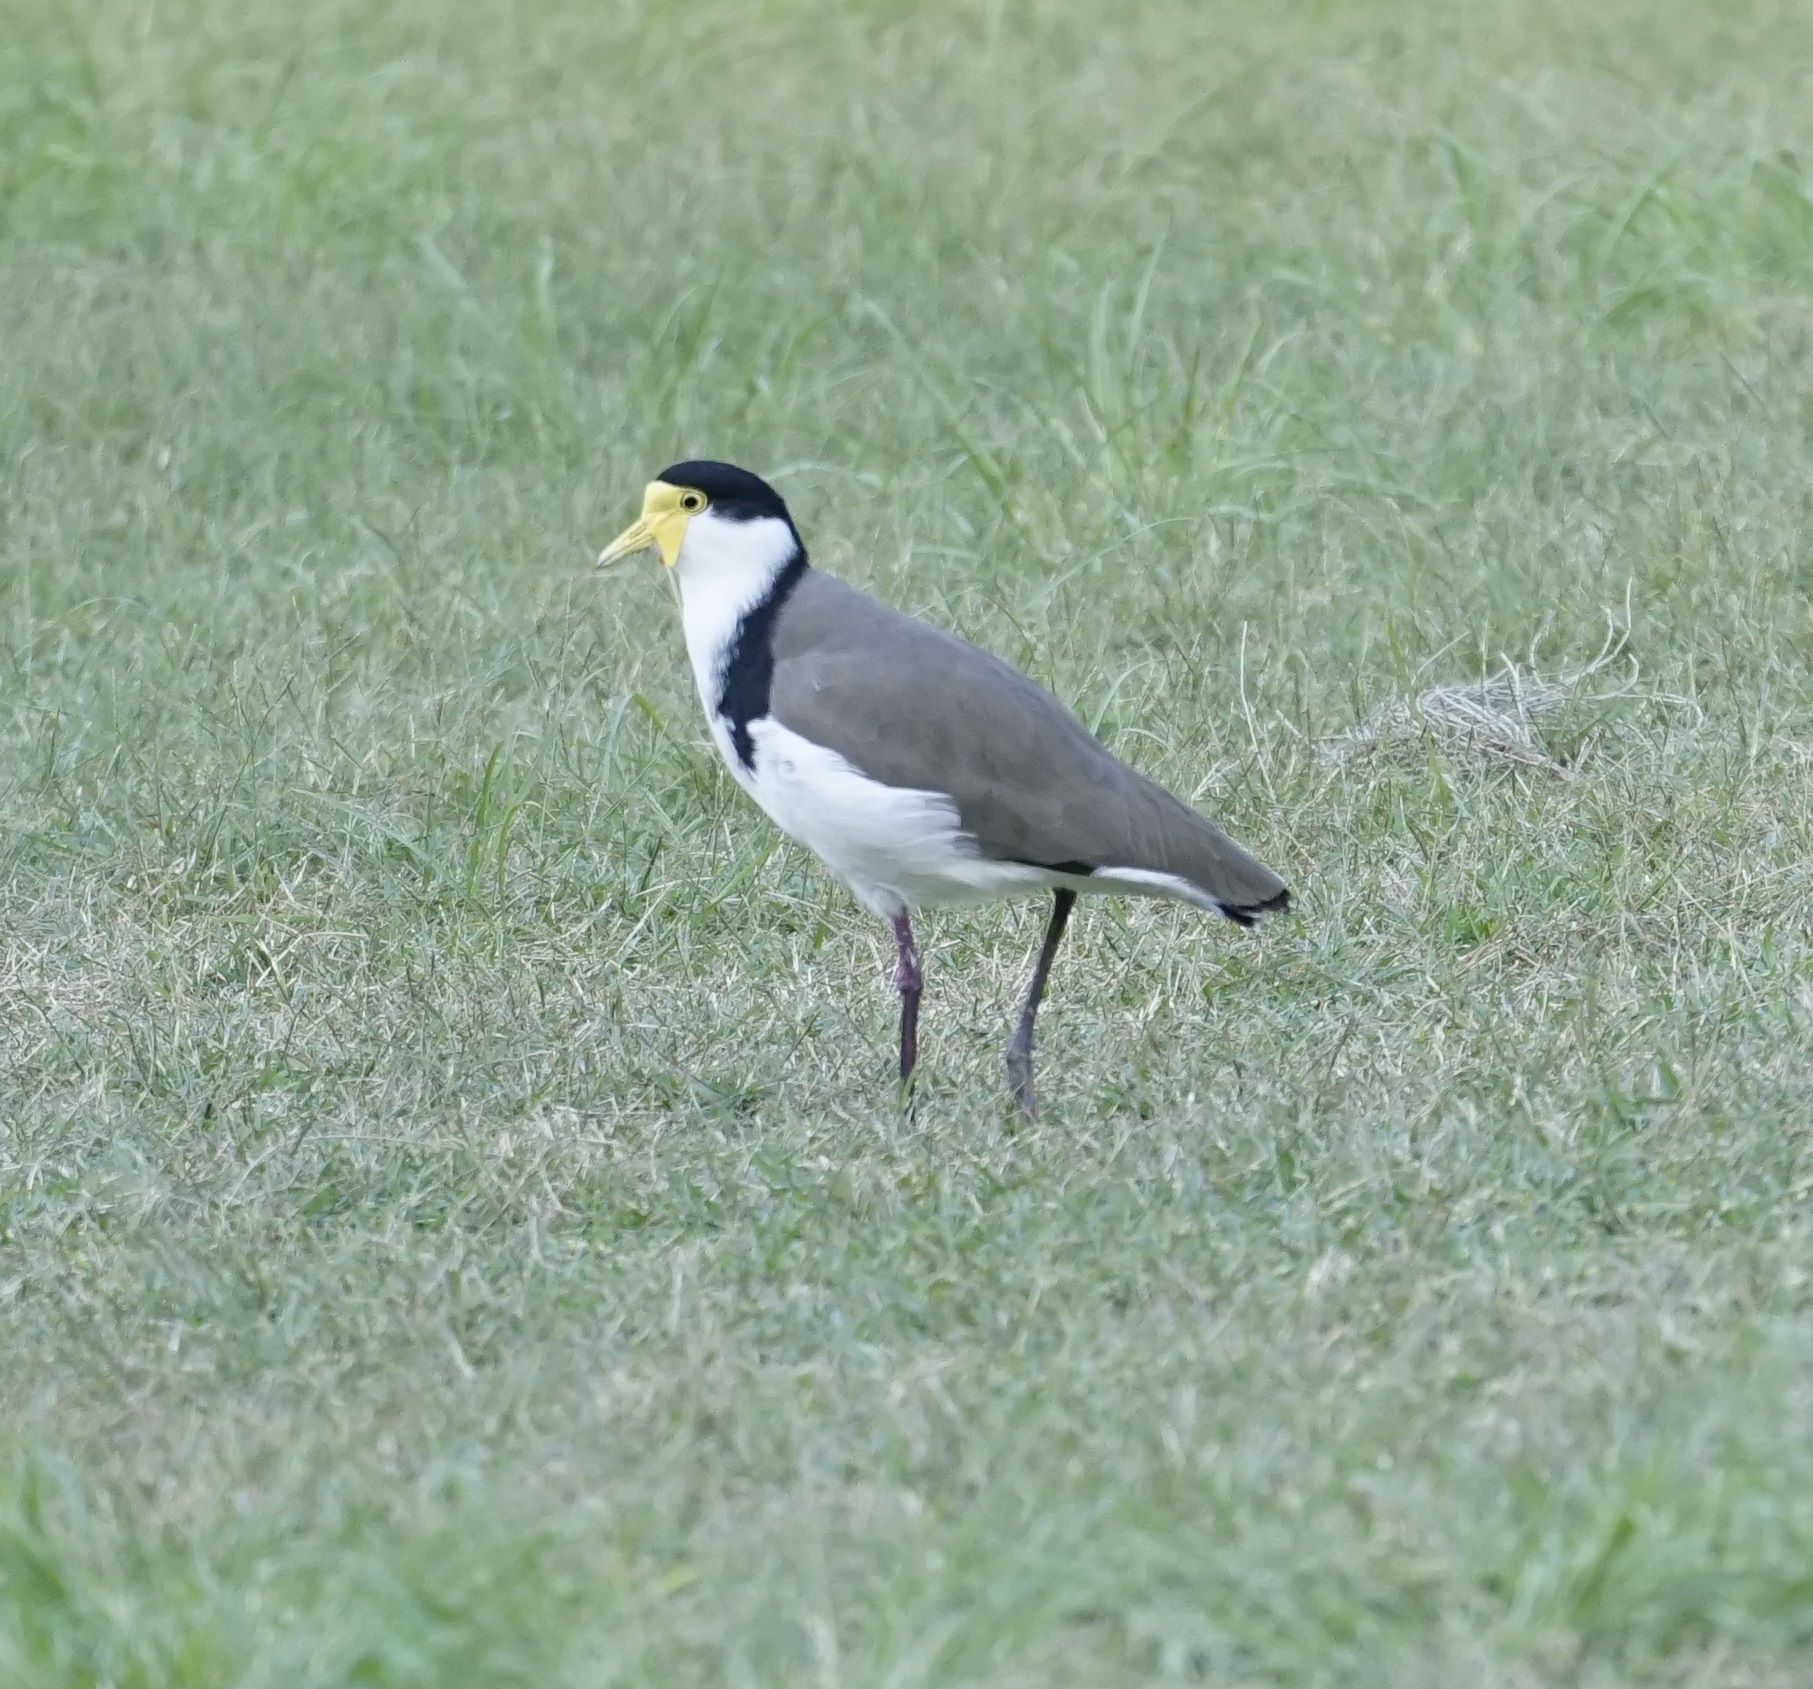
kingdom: Animalia
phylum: Chordata
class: Aves
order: Charadriiformes
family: Charadriidae
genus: Vanellus
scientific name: Vanellus miles
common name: Masked lapwing
